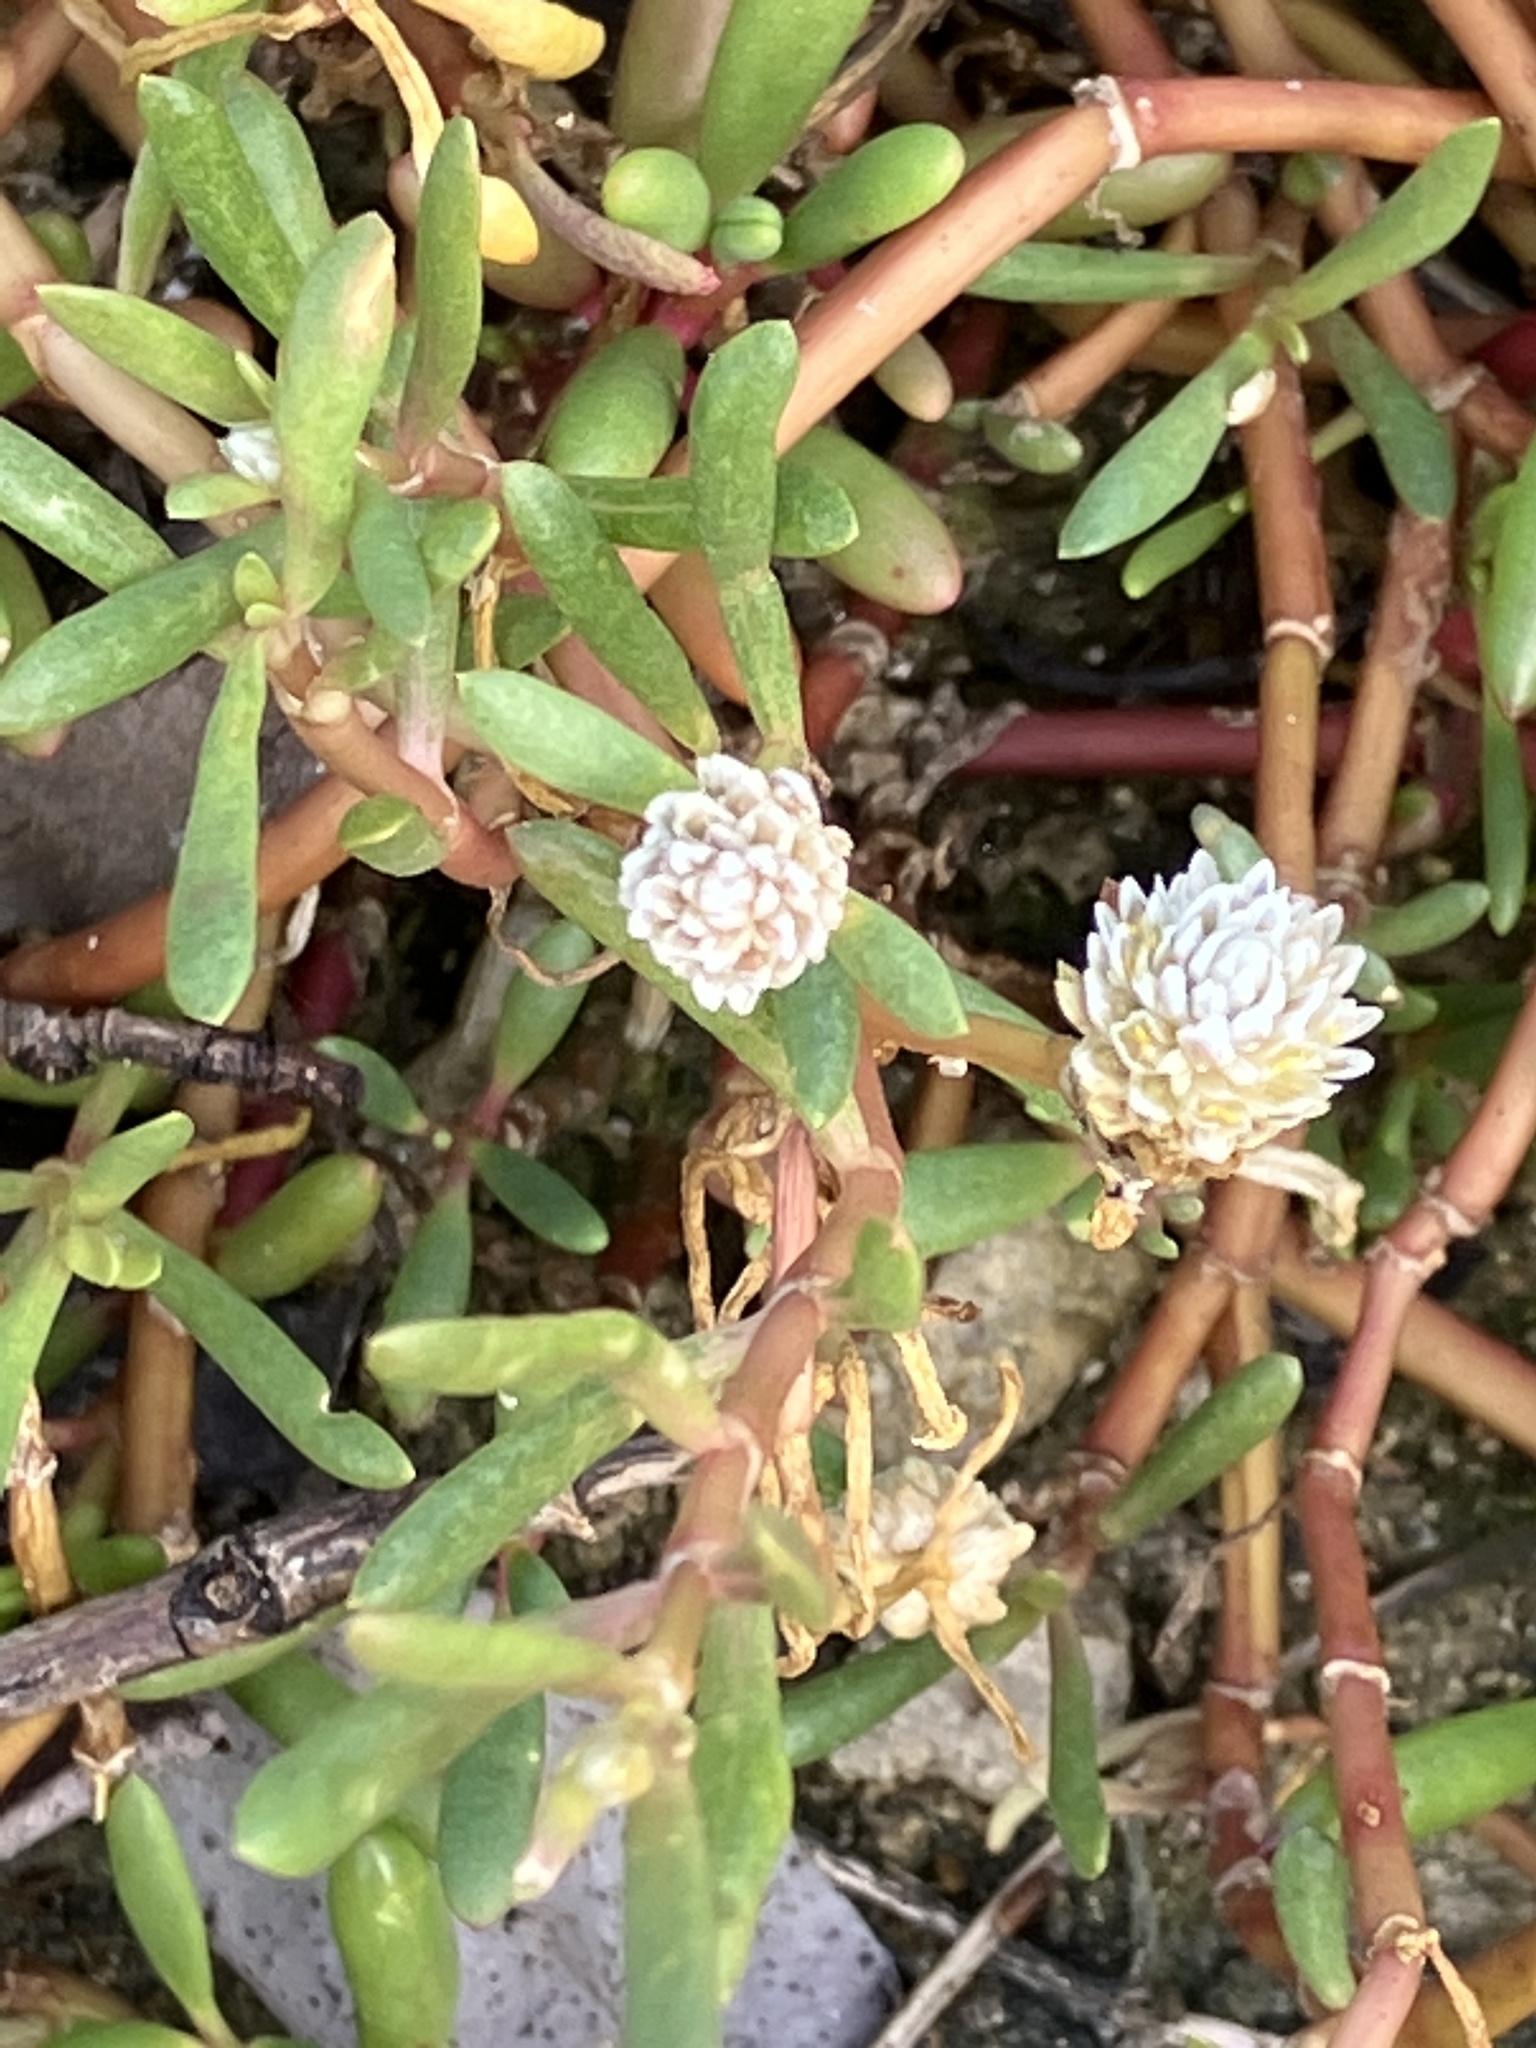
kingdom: Plantae
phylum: Tracheophyta
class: Magnoliopsida
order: Caryophyllales
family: Amaranthaceae
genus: Gomphrena
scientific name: Gomphrena vermicularis
